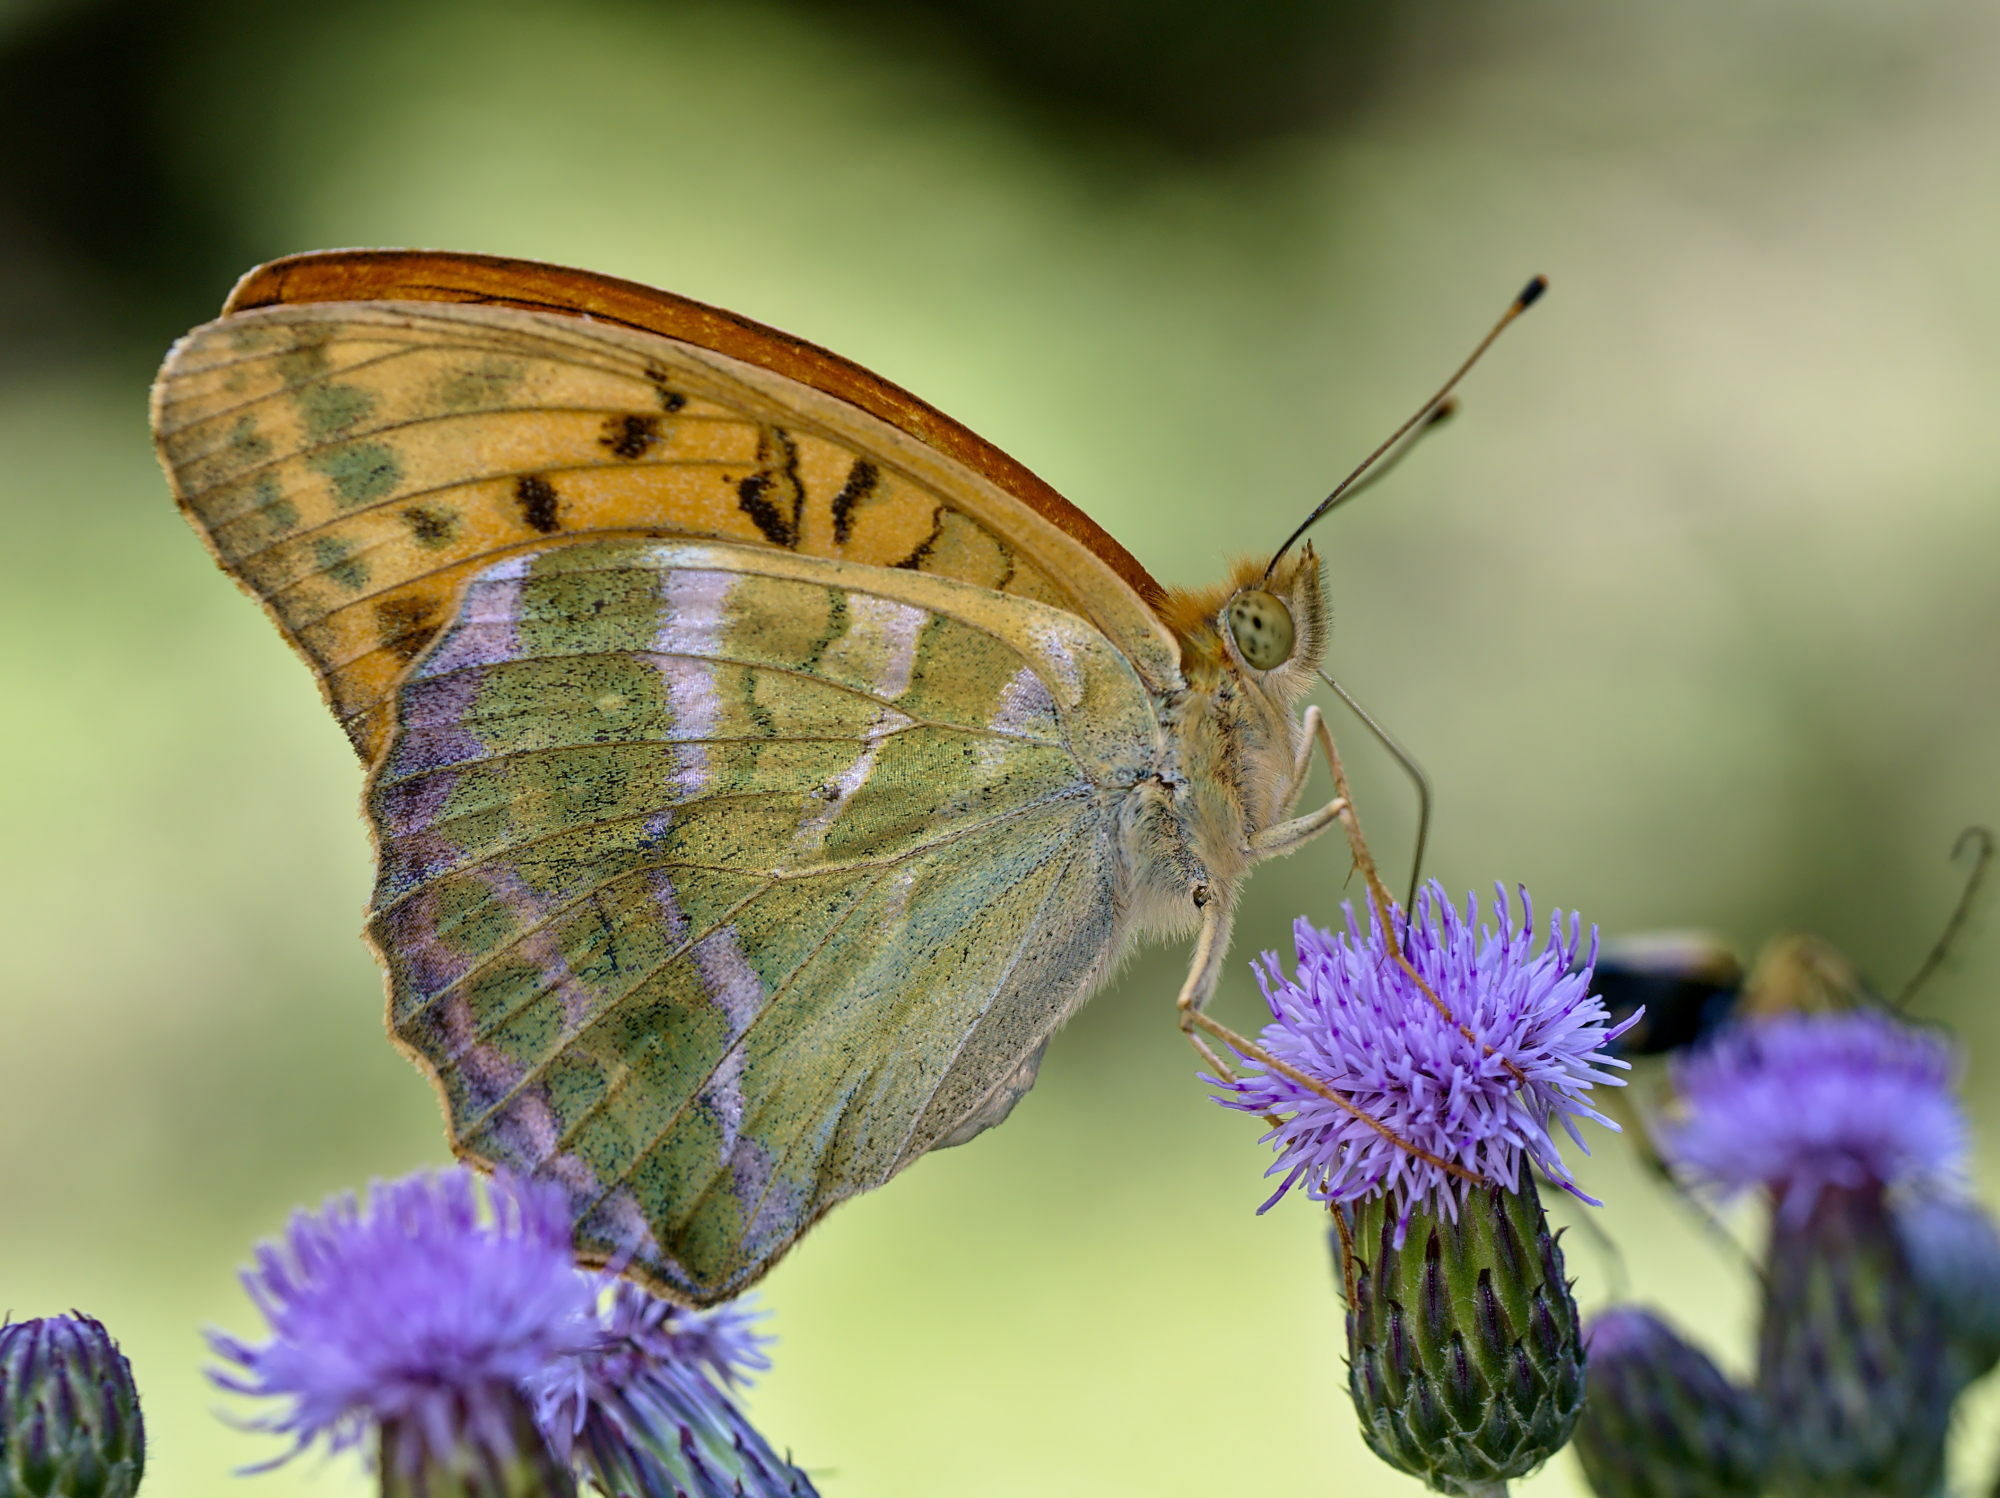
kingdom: Animalia
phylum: Arthropoda
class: Insecta
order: Lepidoptera
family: Nymphalidae
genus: Argynnis
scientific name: Argynnis paphia
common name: Silver-washed fritillary
